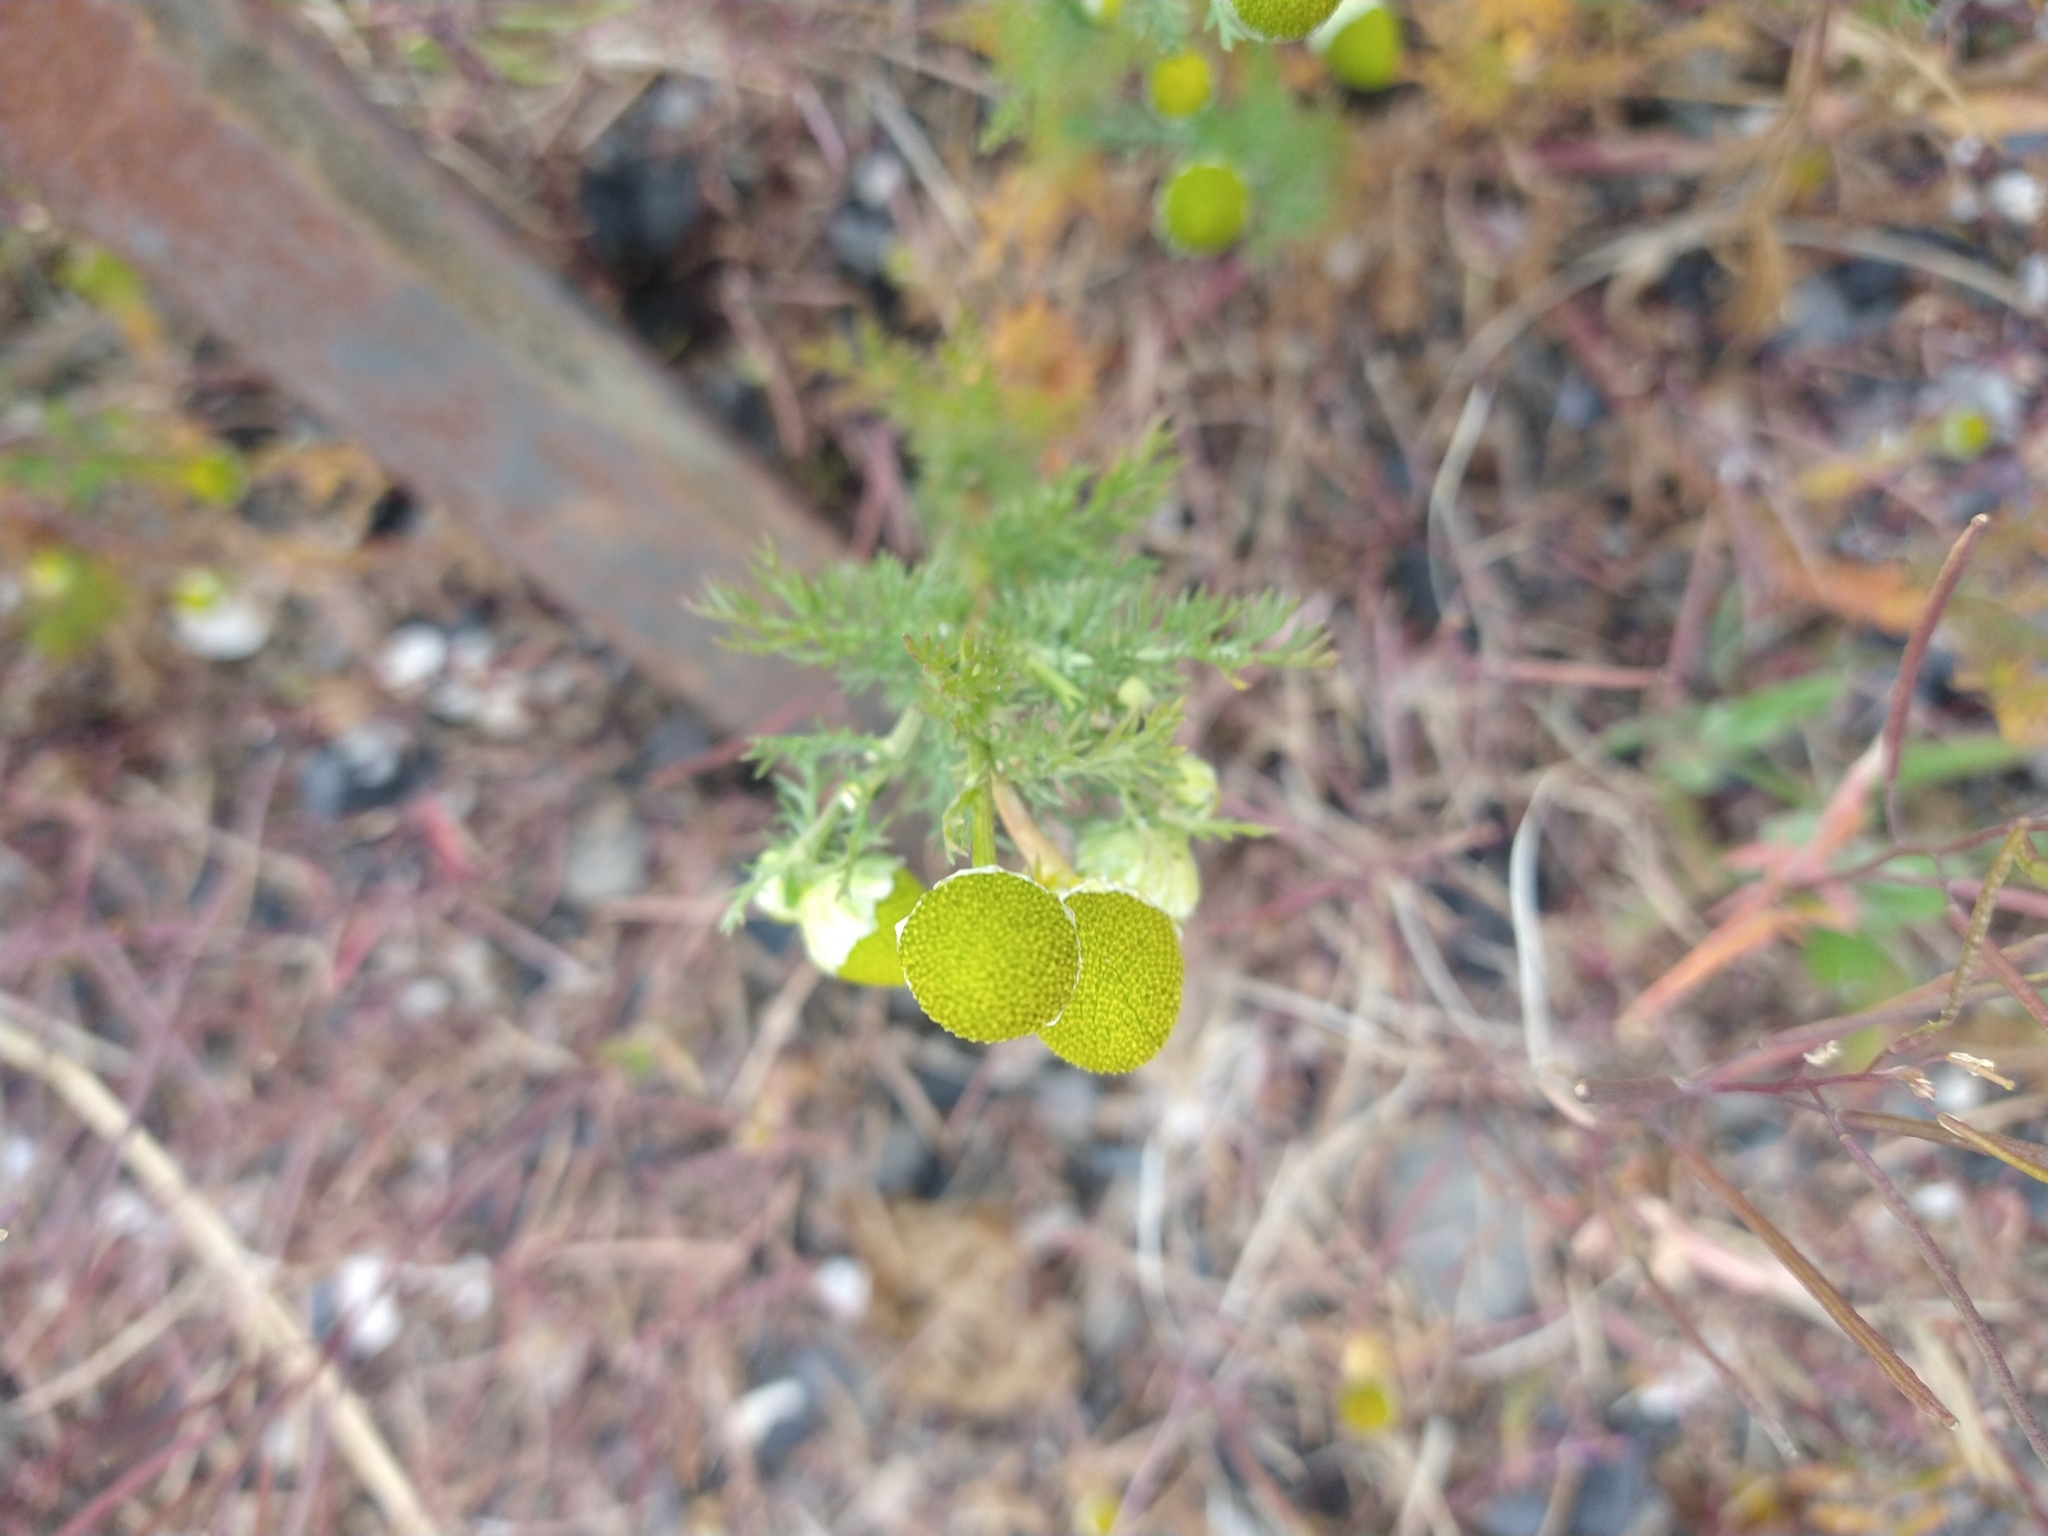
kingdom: Plantae
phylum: Tracheophyta
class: Magnoliopsida
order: Asterales
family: Asteraceae
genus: Matricaria
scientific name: Matricaria discoidea
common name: Disc mayweed
